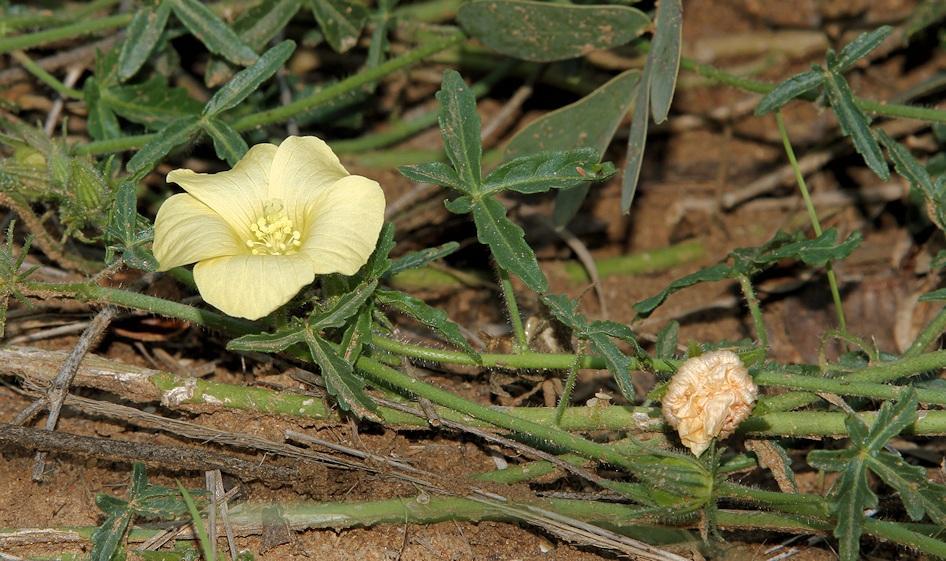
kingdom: Plantae
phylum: Tracheophyta
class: Magnoliopsida
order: Malvales
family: Malvaceae
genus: Hibiscus
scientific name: Hibiscus palmatus
